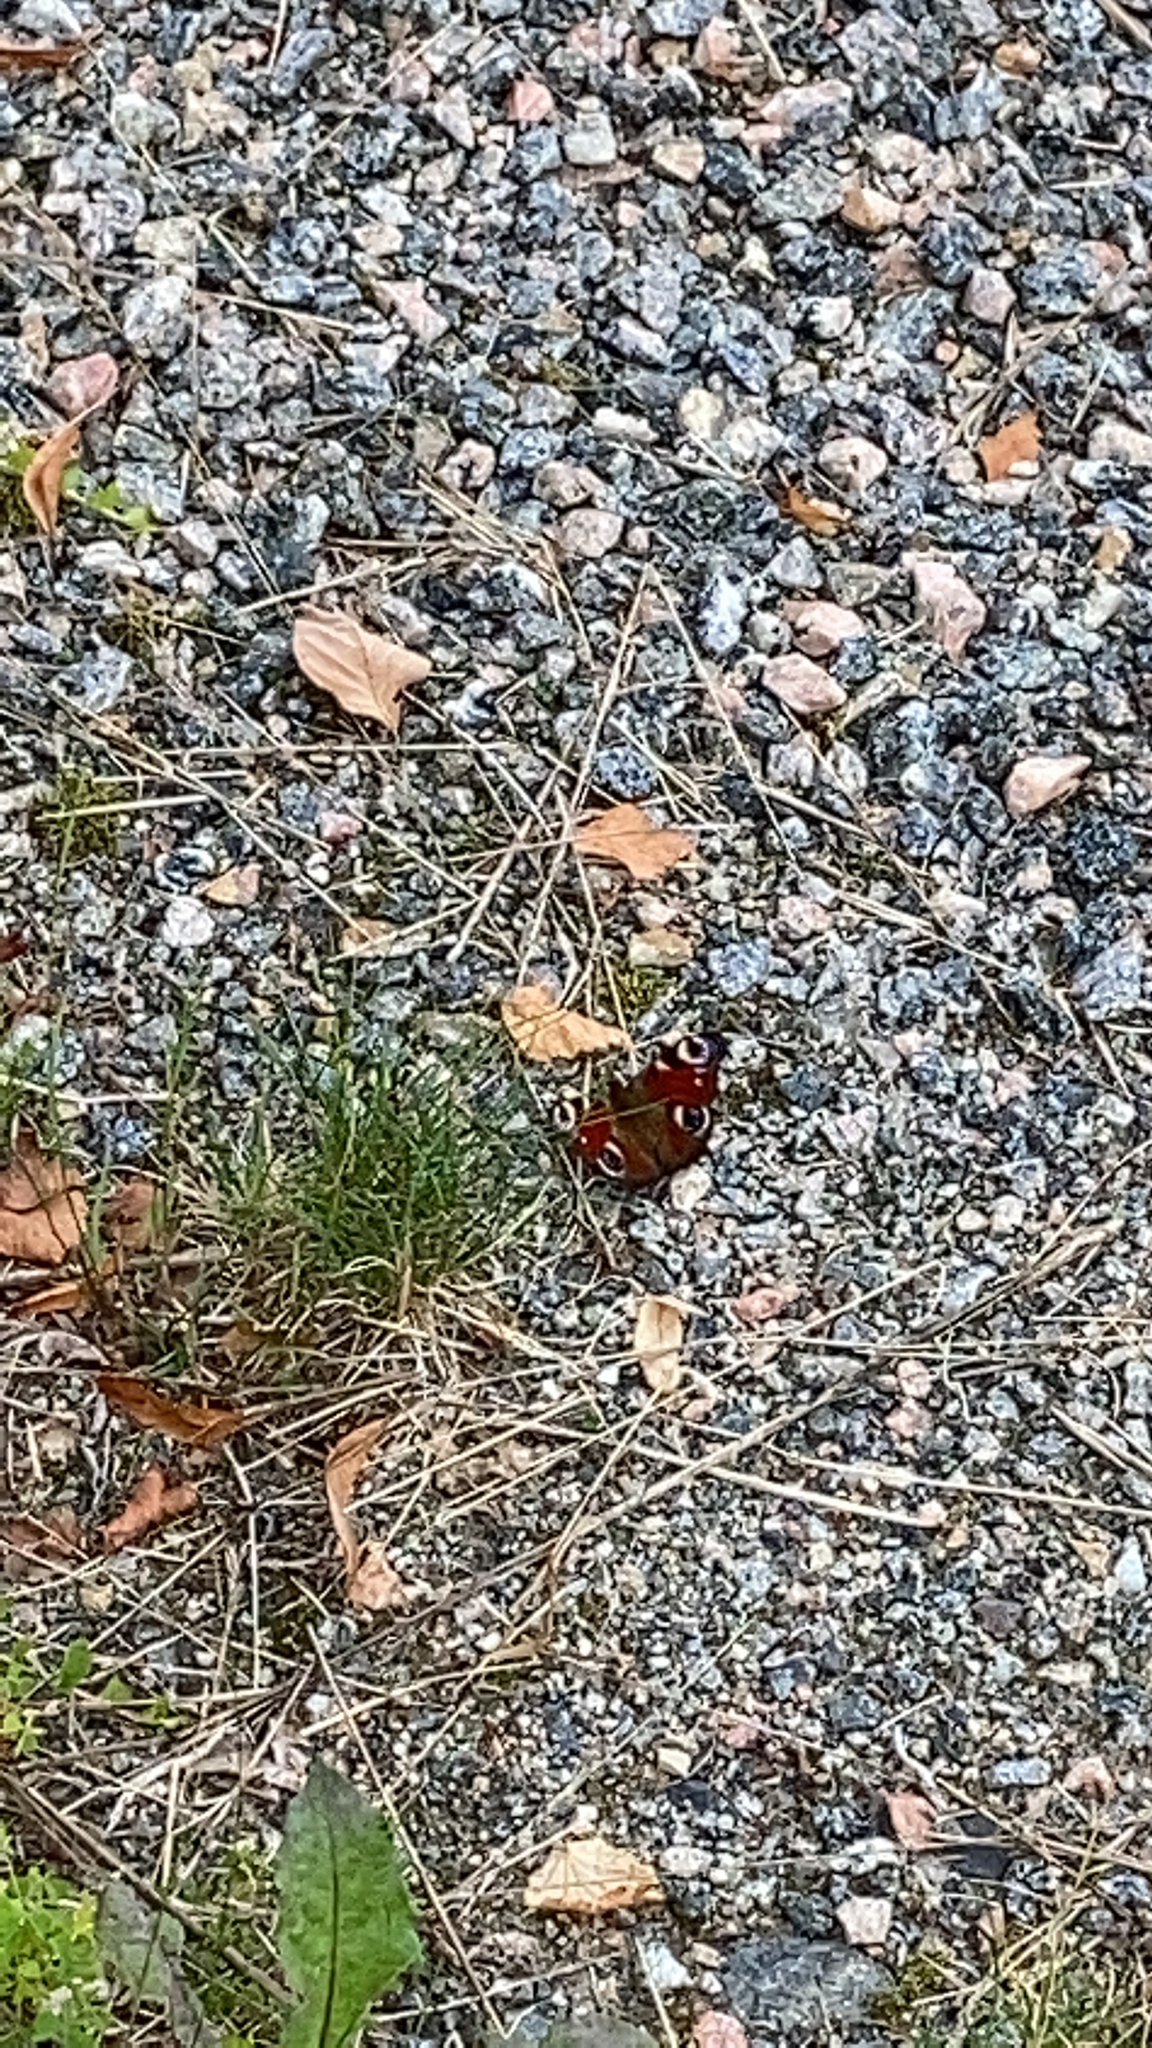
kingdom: Animalia
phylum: Arthropoda
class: Insecta
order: Lepidoptera
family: Nymphalidae
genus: Aglais
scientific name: Aglais io
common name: Peacock
